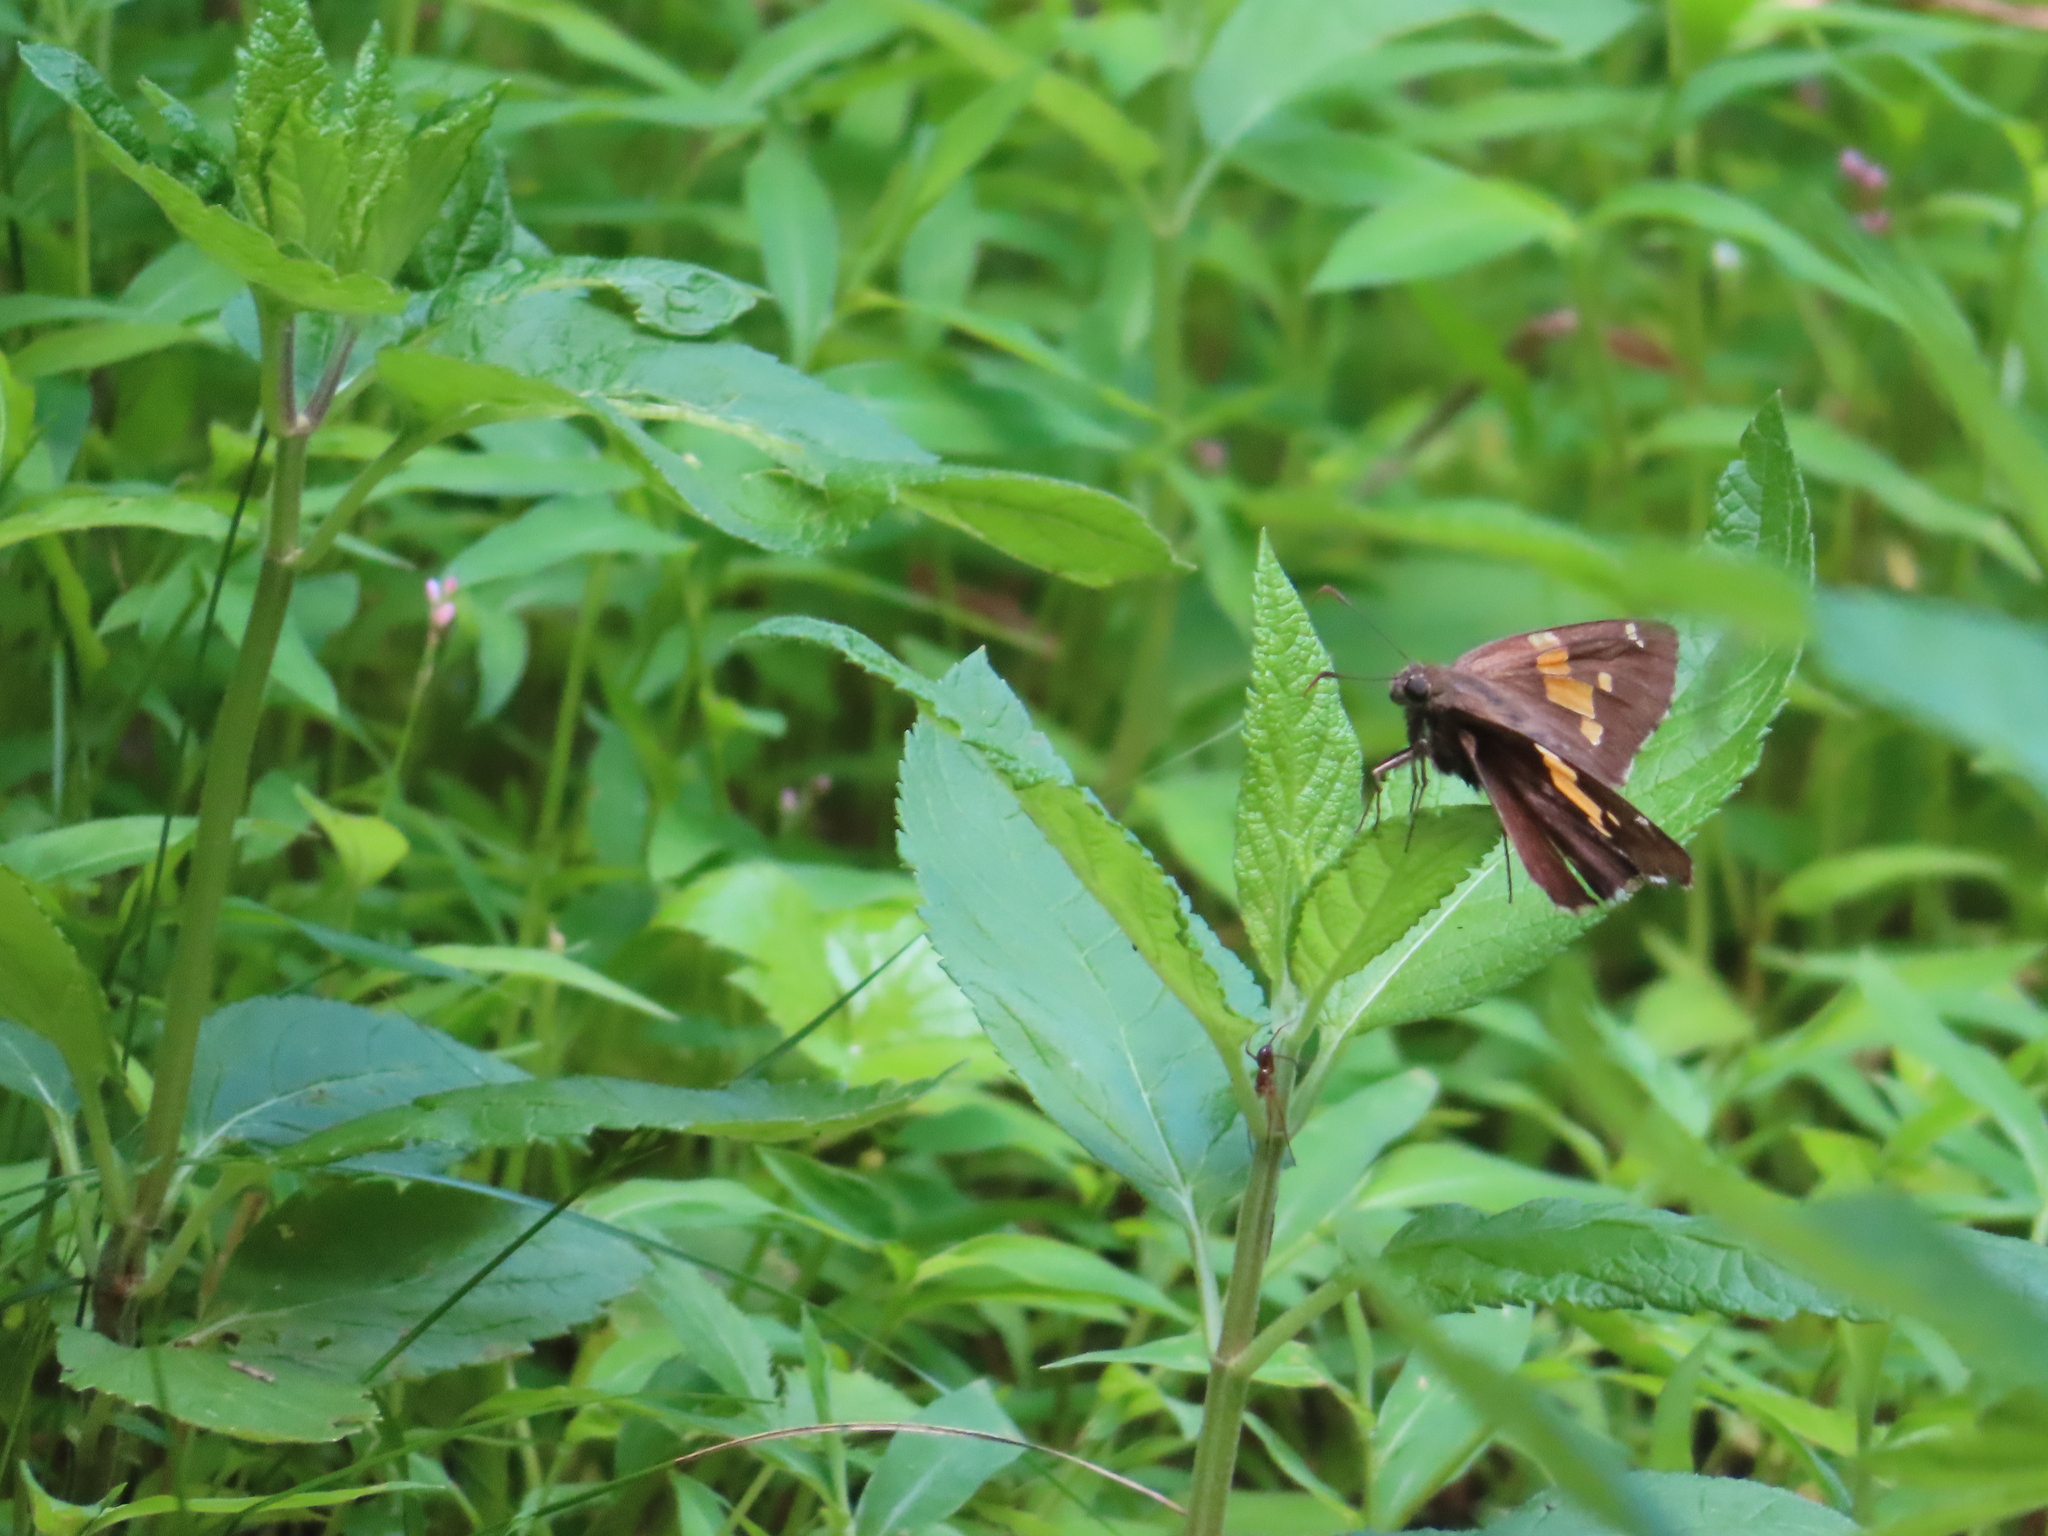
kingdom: Animalia
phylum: Arthropoda
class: Insecta
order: Lepidoptera
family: Hesperiidae
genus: Epargyreus
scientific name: Epargyreus clarus
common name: Silver-spotted skipper
